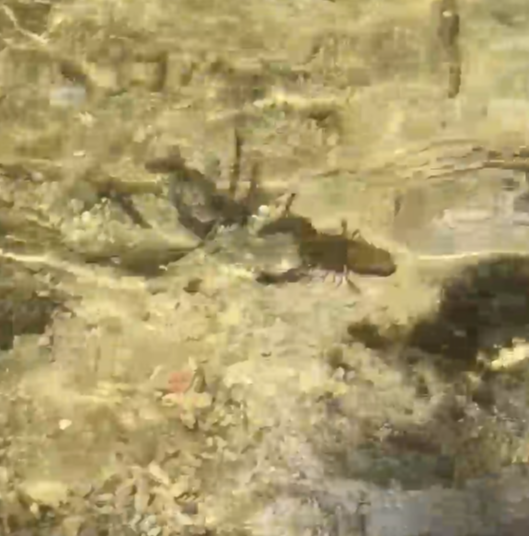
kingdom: Animalia
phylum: Arthropoda
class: Malacostraca
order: Decapoda
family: Parastacidae
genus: Paranephrops
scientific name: Paranephrops planifrons
